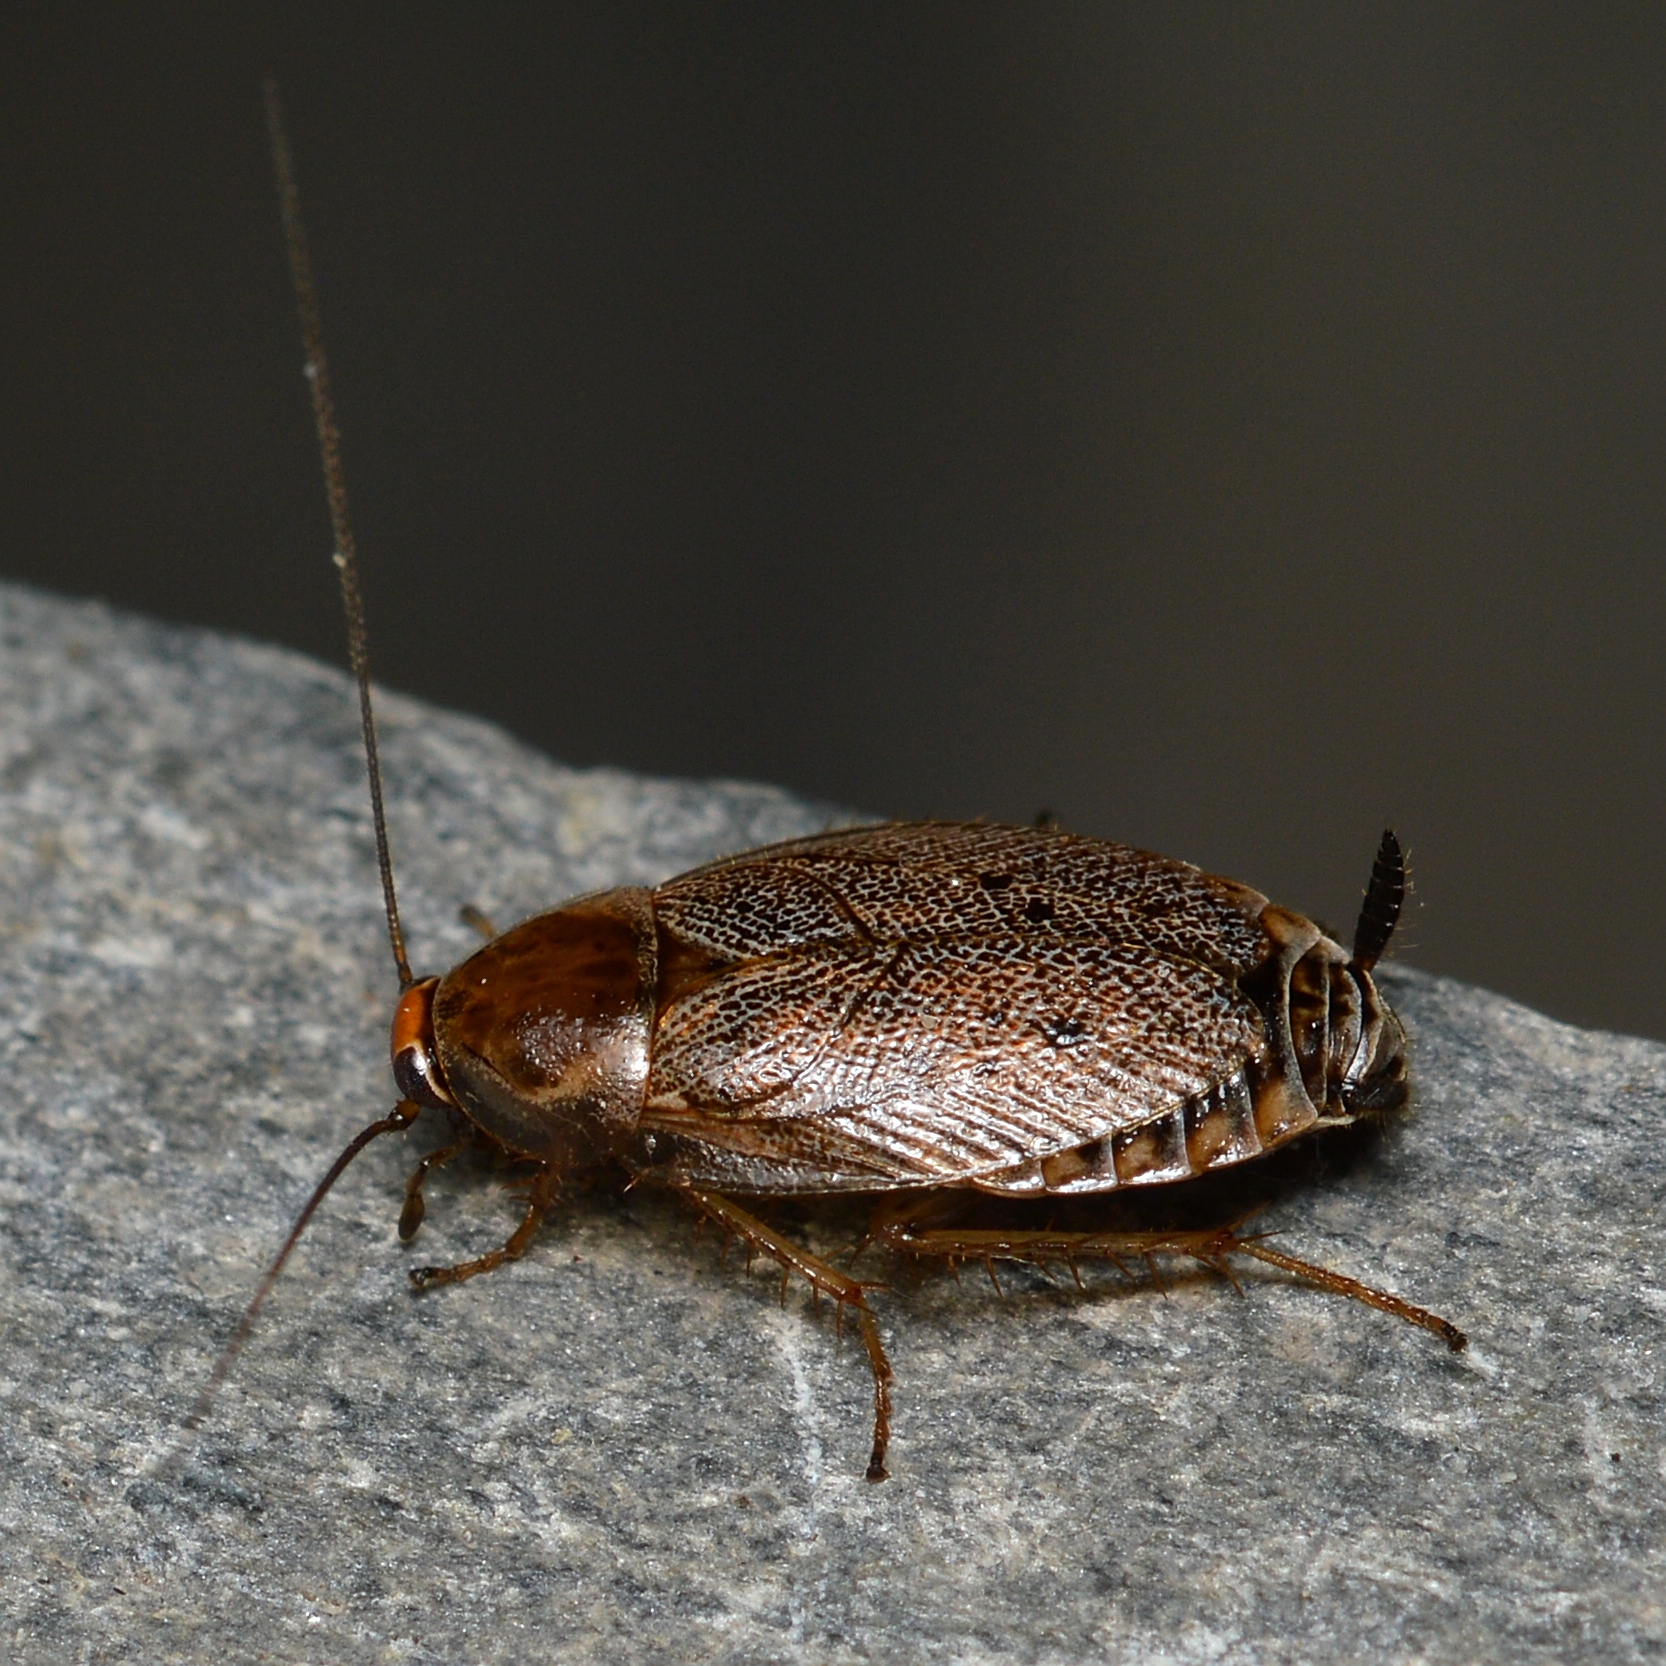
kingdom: Animalia
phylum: Arthropoda
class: Insecta
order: Blattodea
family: Ectobiidae
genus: Ectobius
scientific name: Ectobius lapponicus
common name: Dusky cockroach
